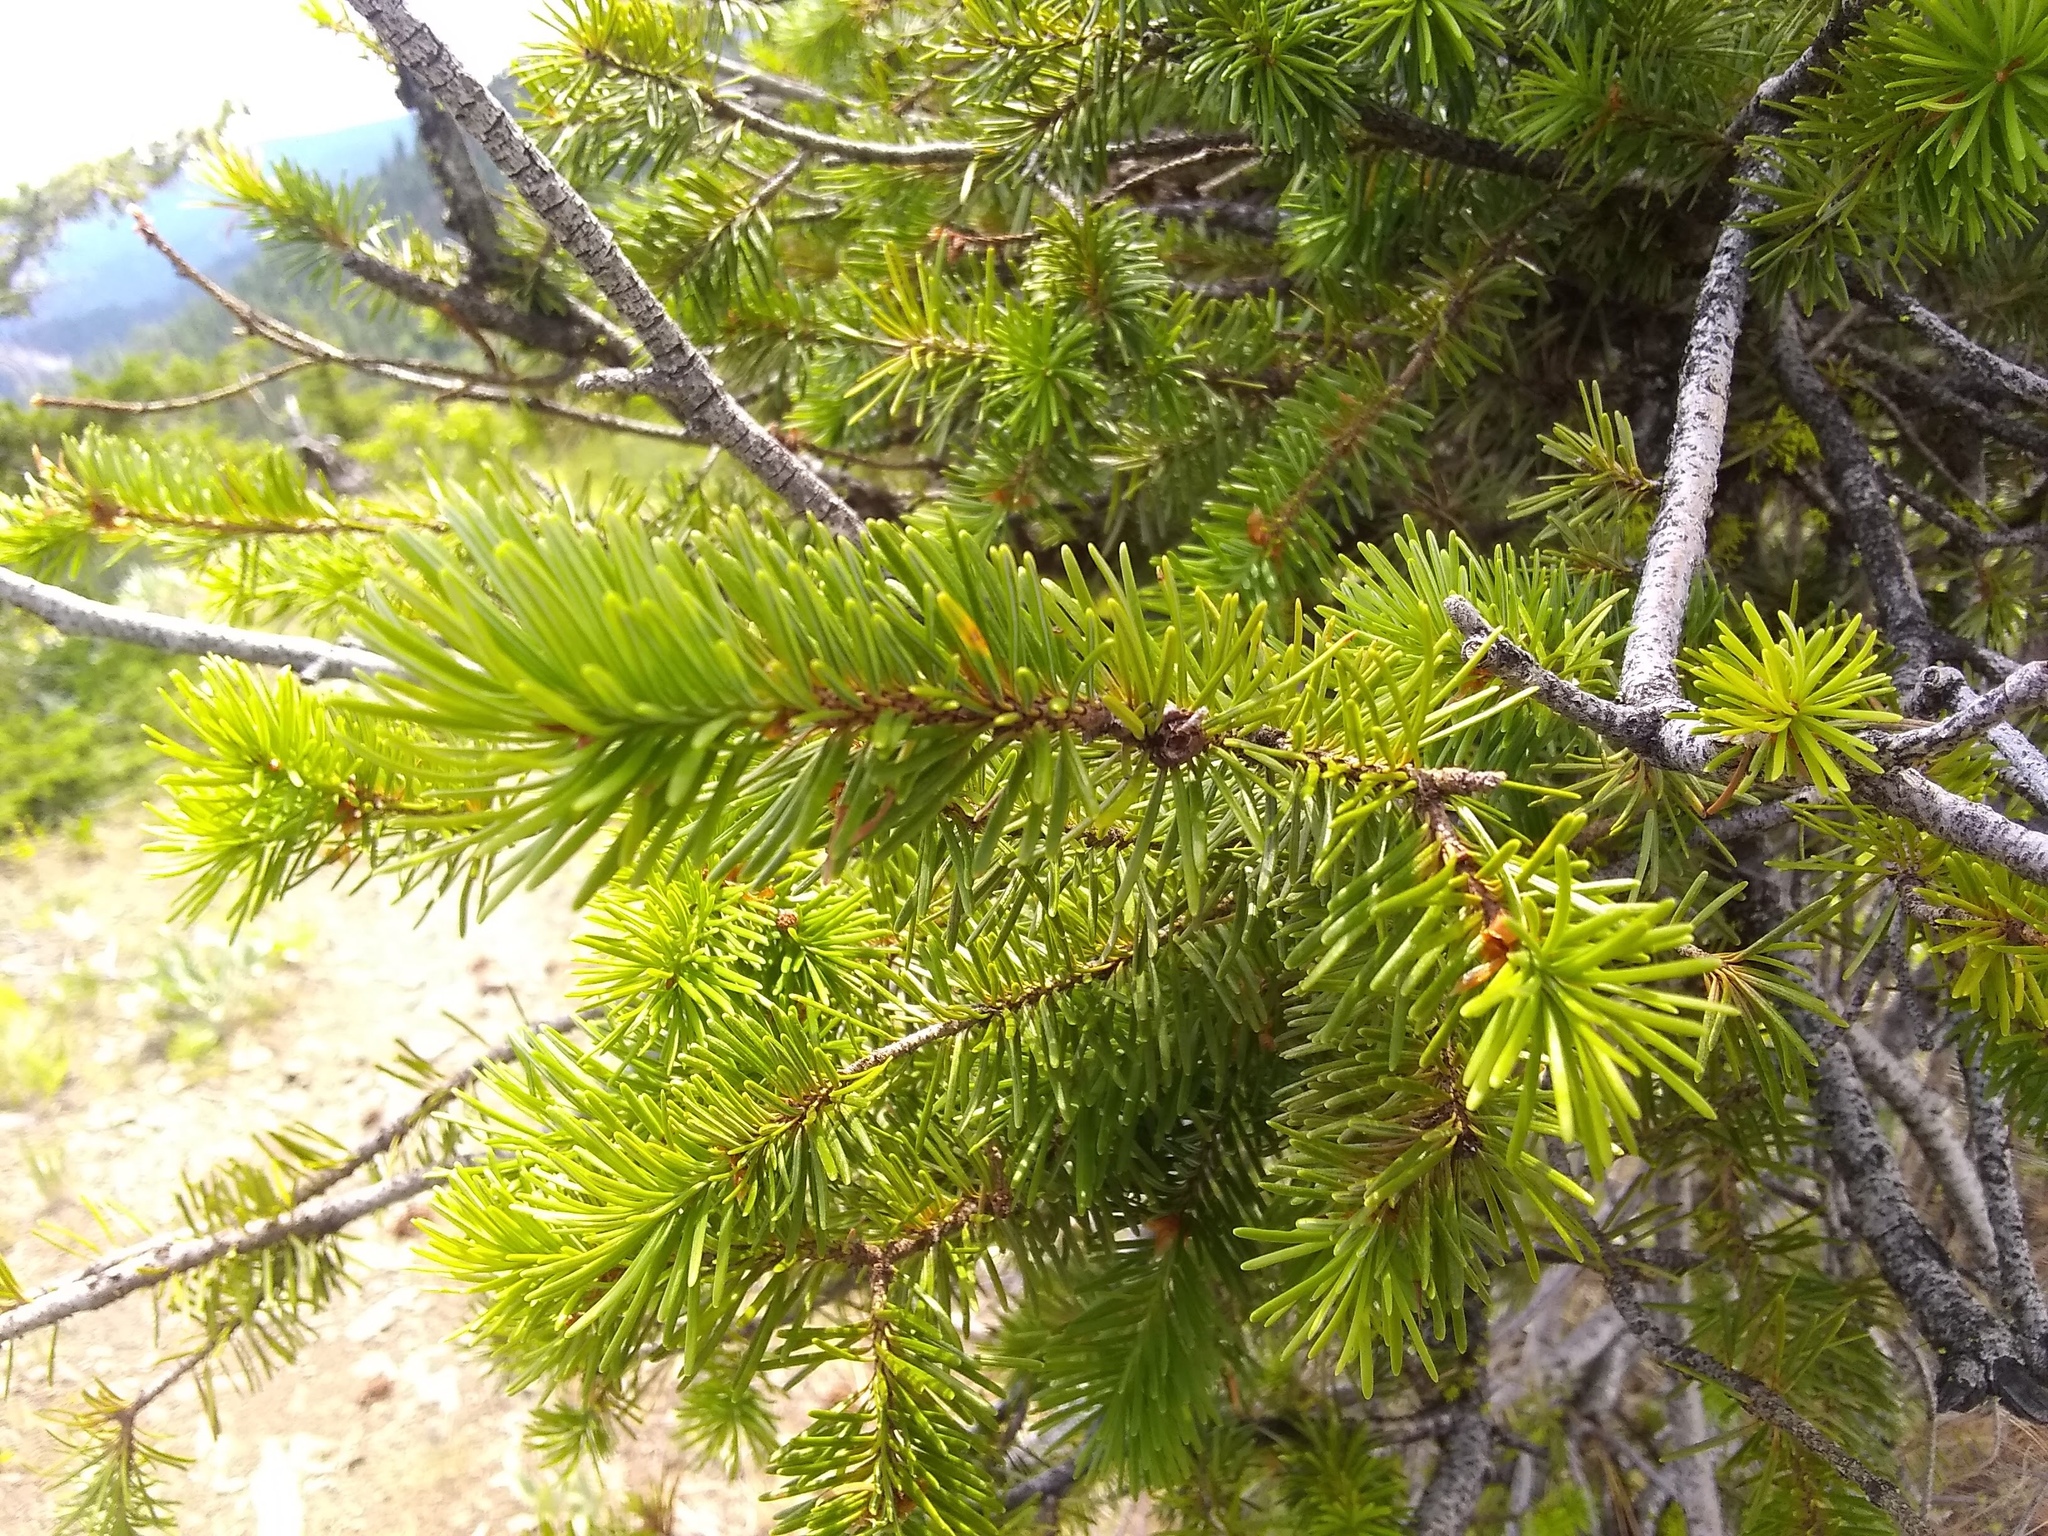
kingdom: Plantae
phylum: Tracheophyta
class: Pinopsida
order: Pinales
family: Pinaceae
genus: Pseudotsuga
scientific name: Pseudotsuga menziesii
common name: Douglas fir
